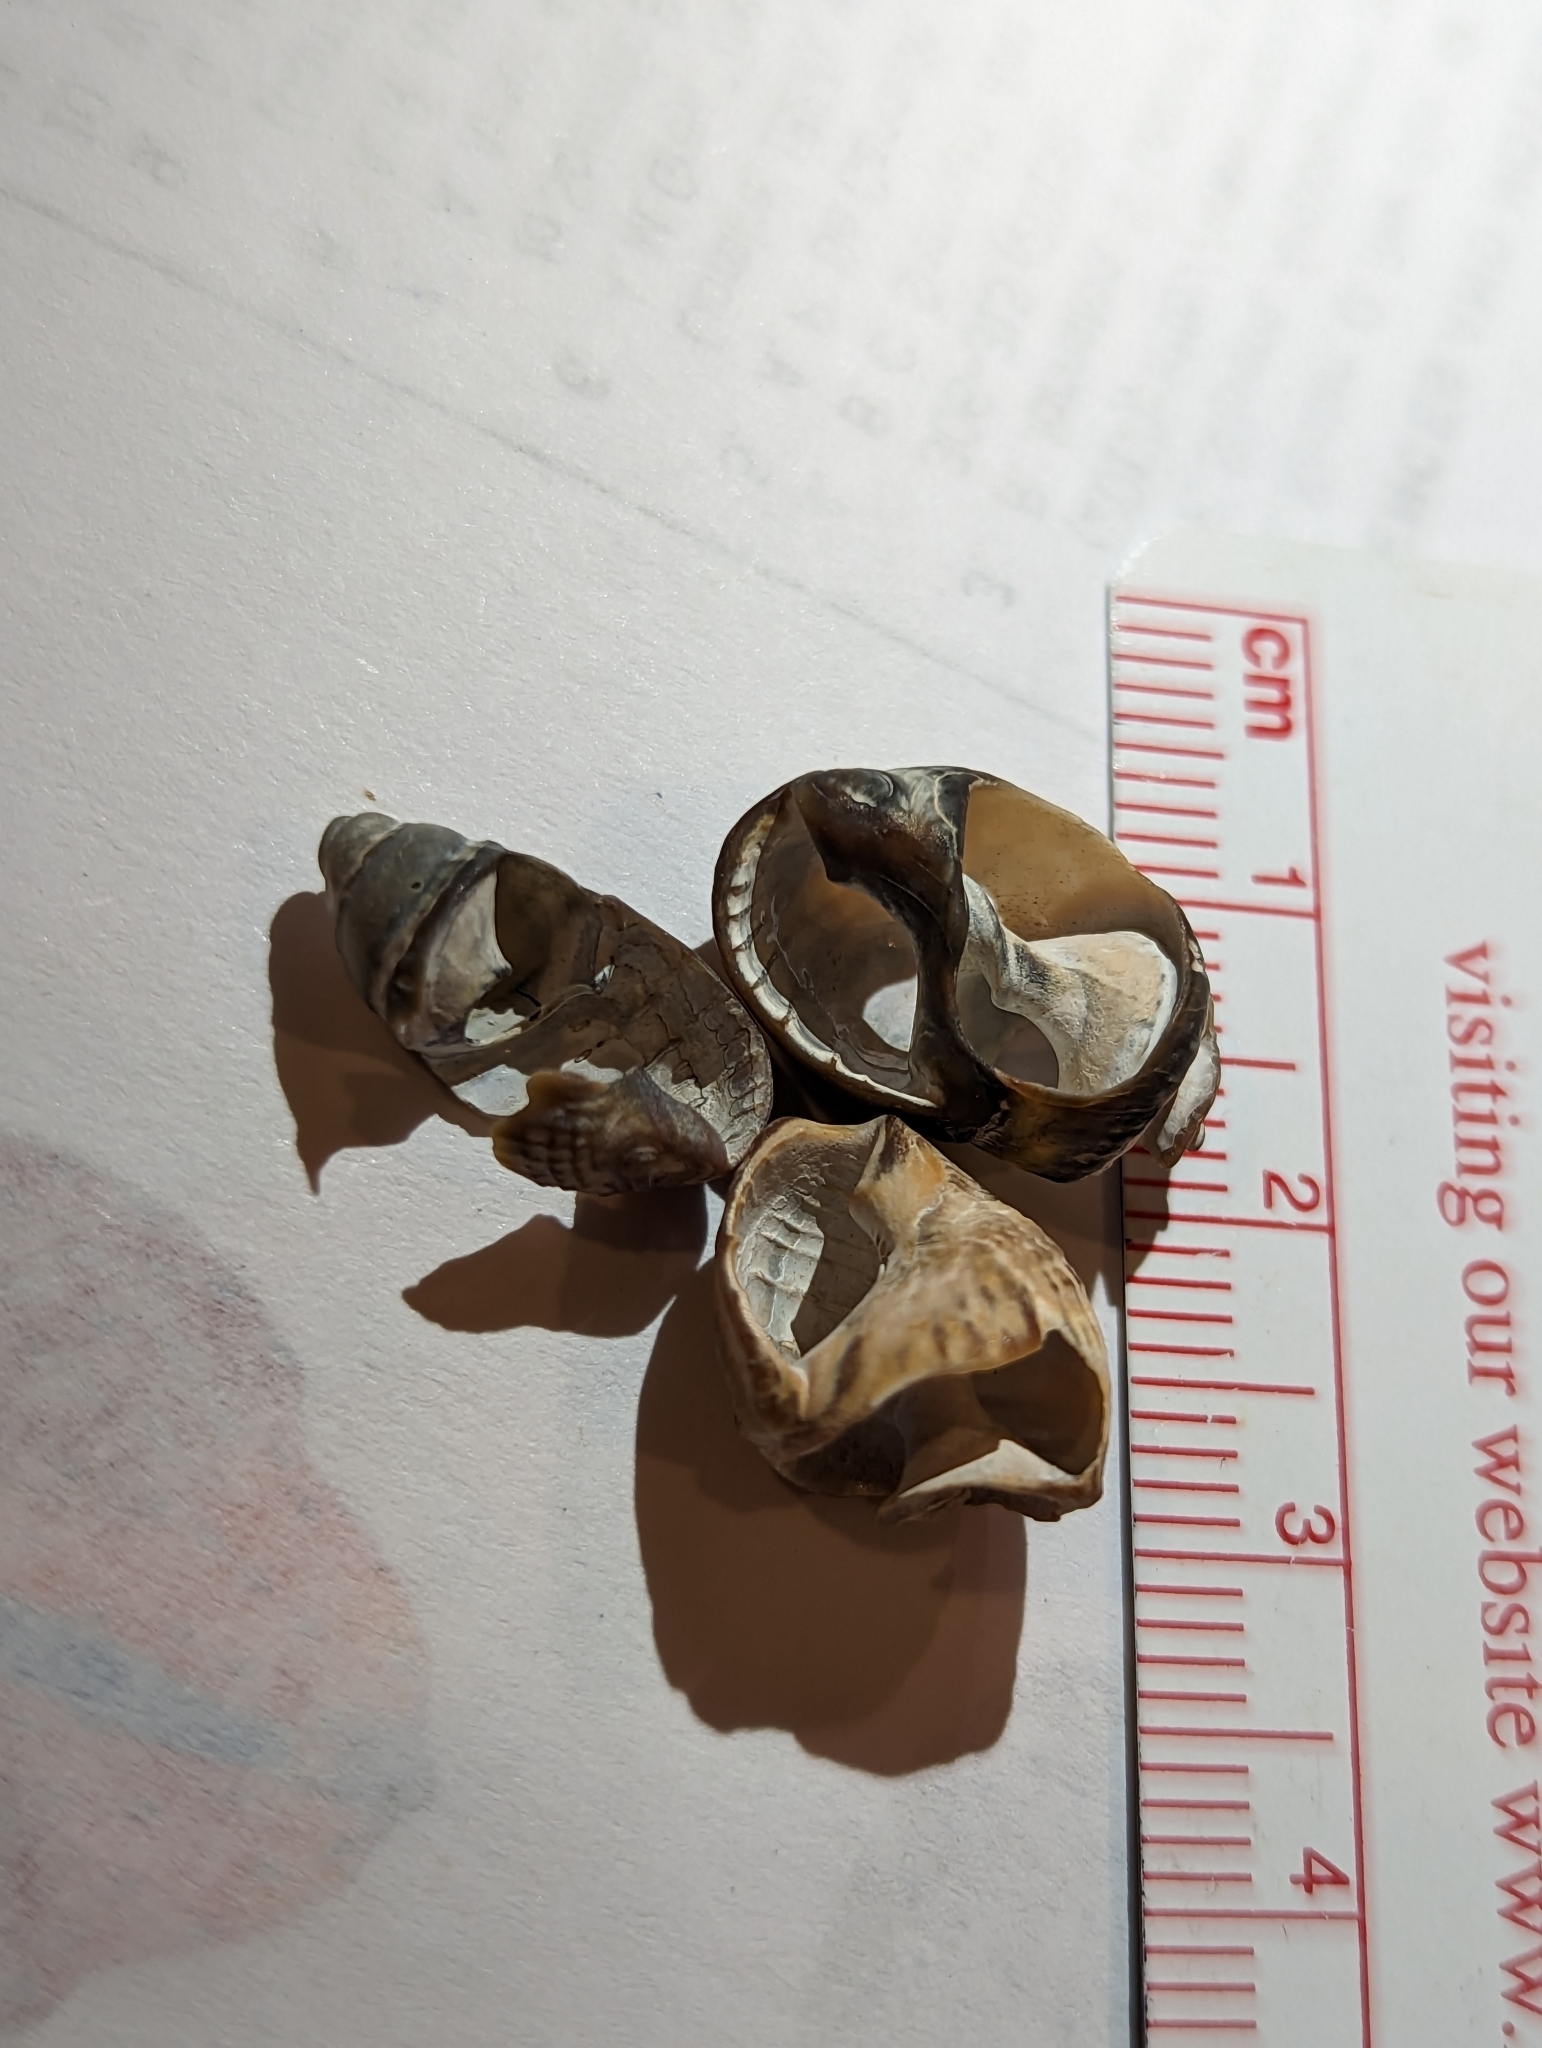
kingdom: Animalia
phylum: Mollusca
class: Gastropoda
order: Neogastropoda
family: Nassariidae
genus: Ilyanassa
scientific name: Ilyanassa obsoleta
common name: Eastern mudsnail
